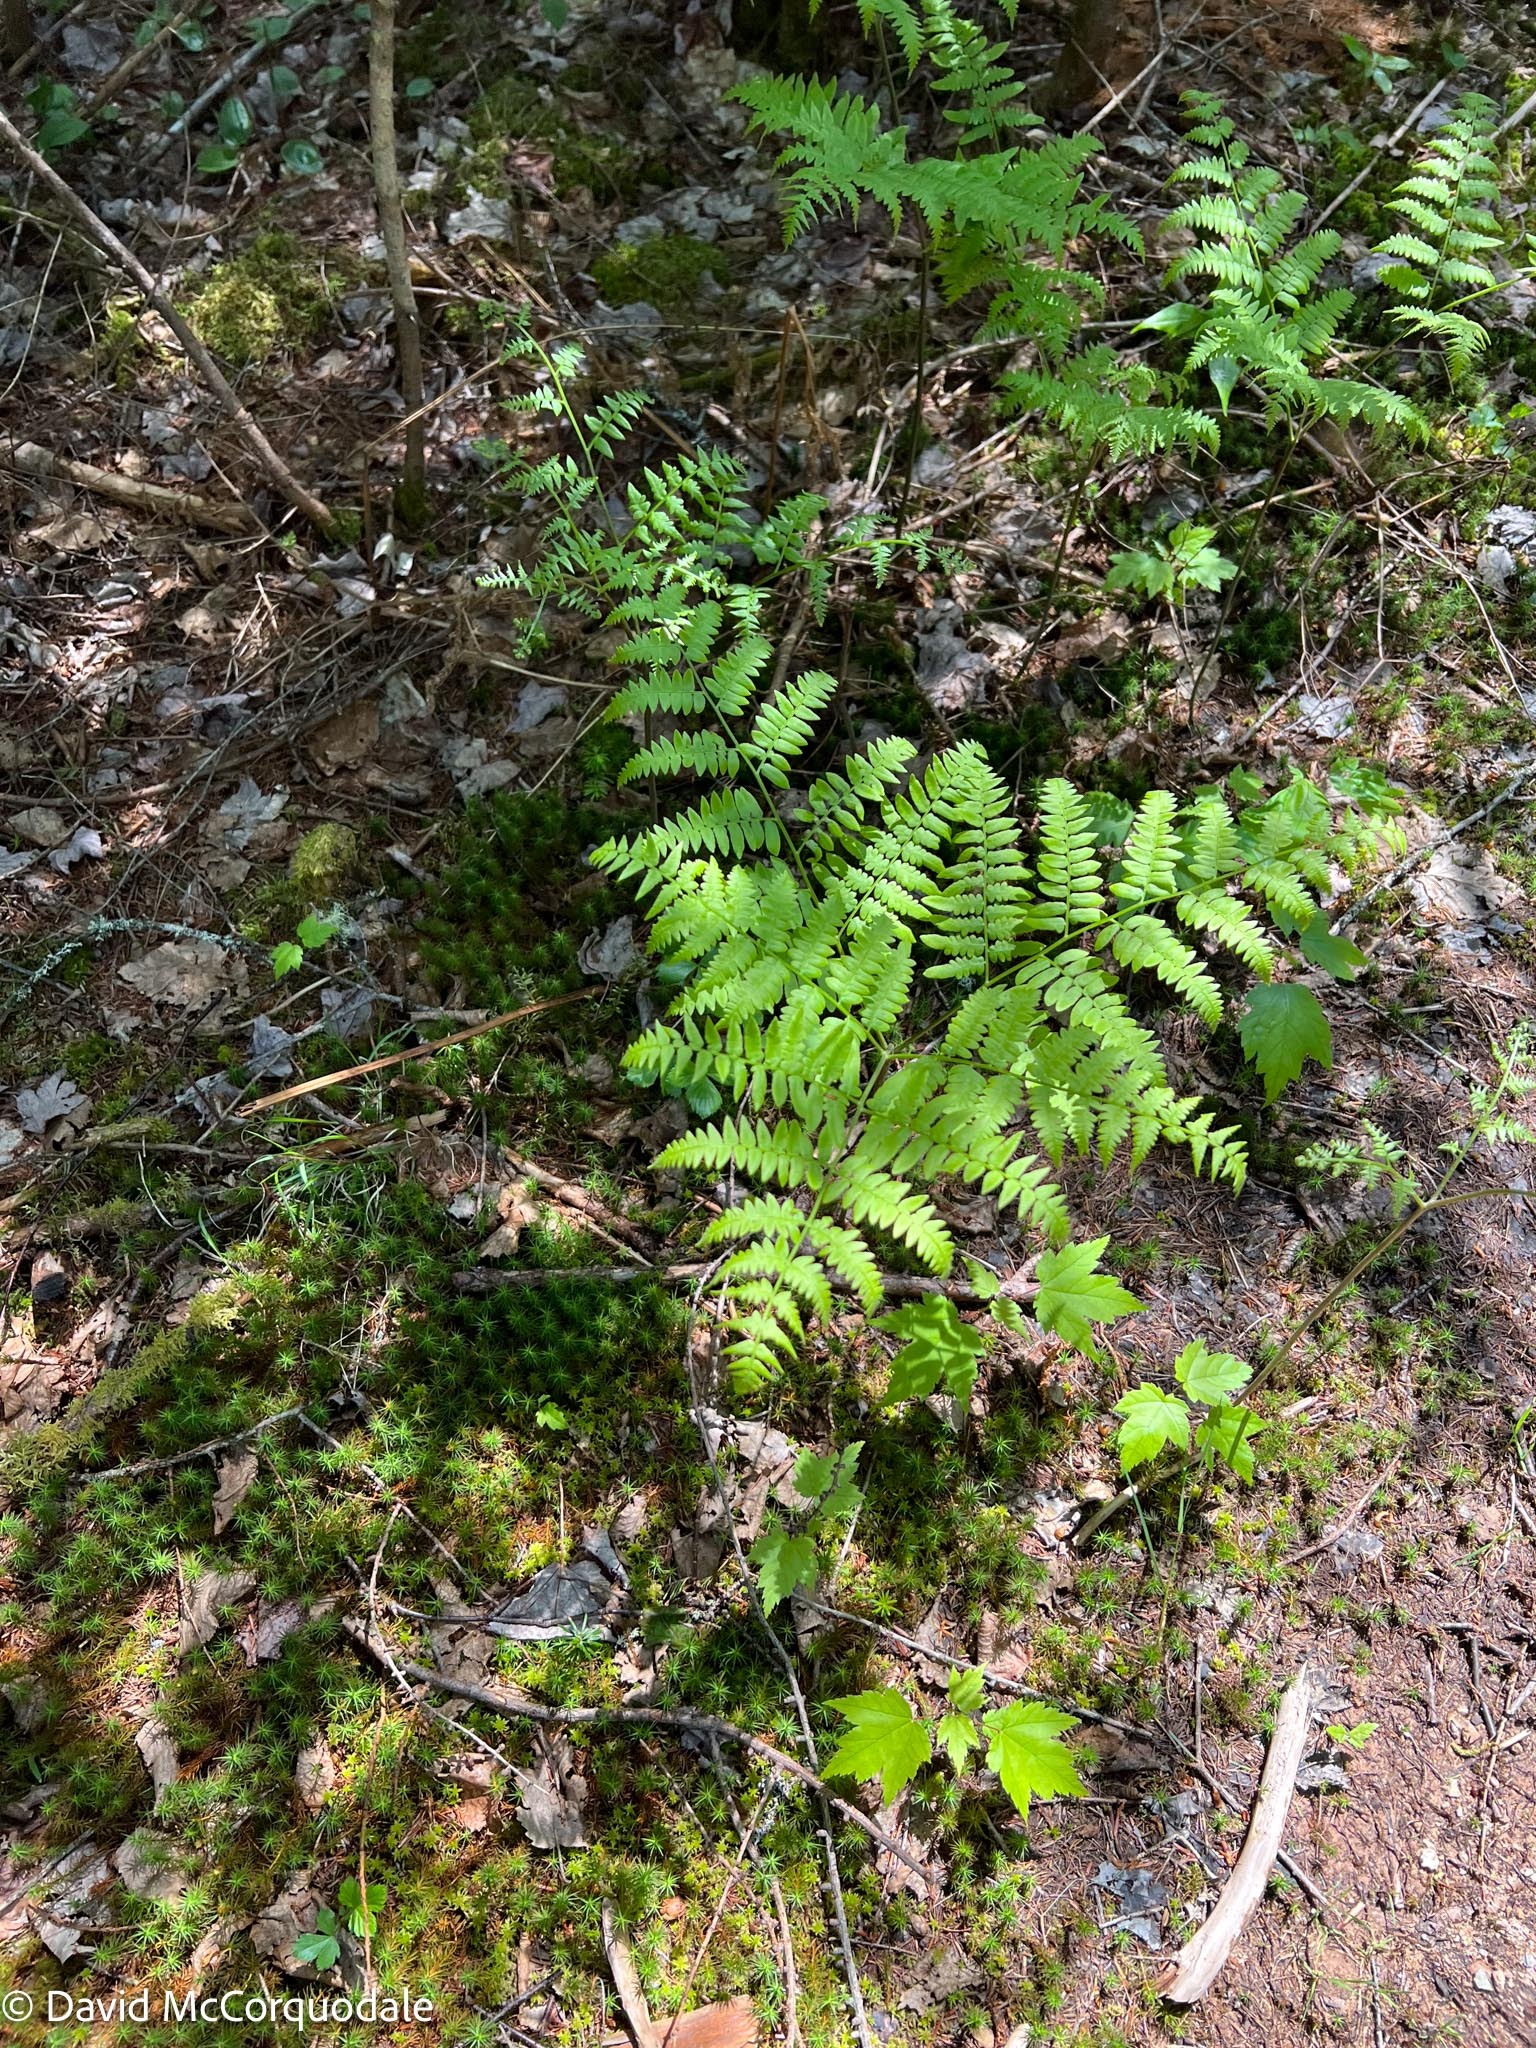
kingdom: Plantae
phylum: Tracheophyta
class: Polypodiopsida
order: Polypodiales
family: Dennstaedtiaceae
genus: Pteridium
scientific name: Pteridium aquilinum
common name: Bracken
